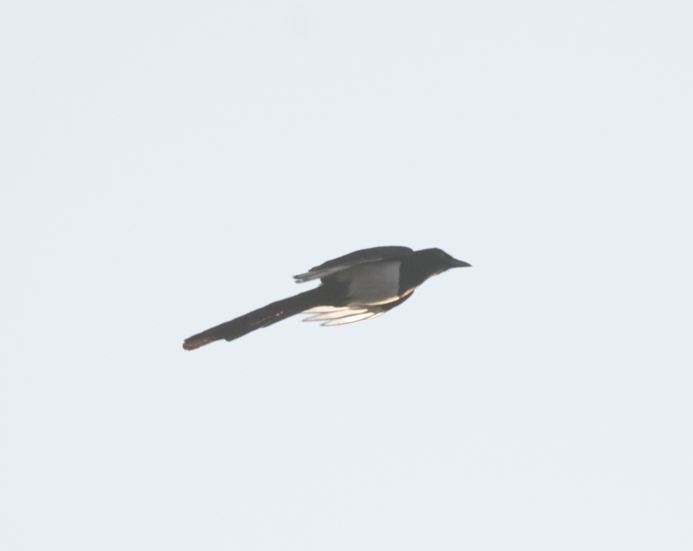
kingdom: Animalia
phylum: Chordata
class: Aves
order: Passeriformes
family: Corvidae
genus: Pica
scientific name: Pica pica
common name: Eurasian magpie
